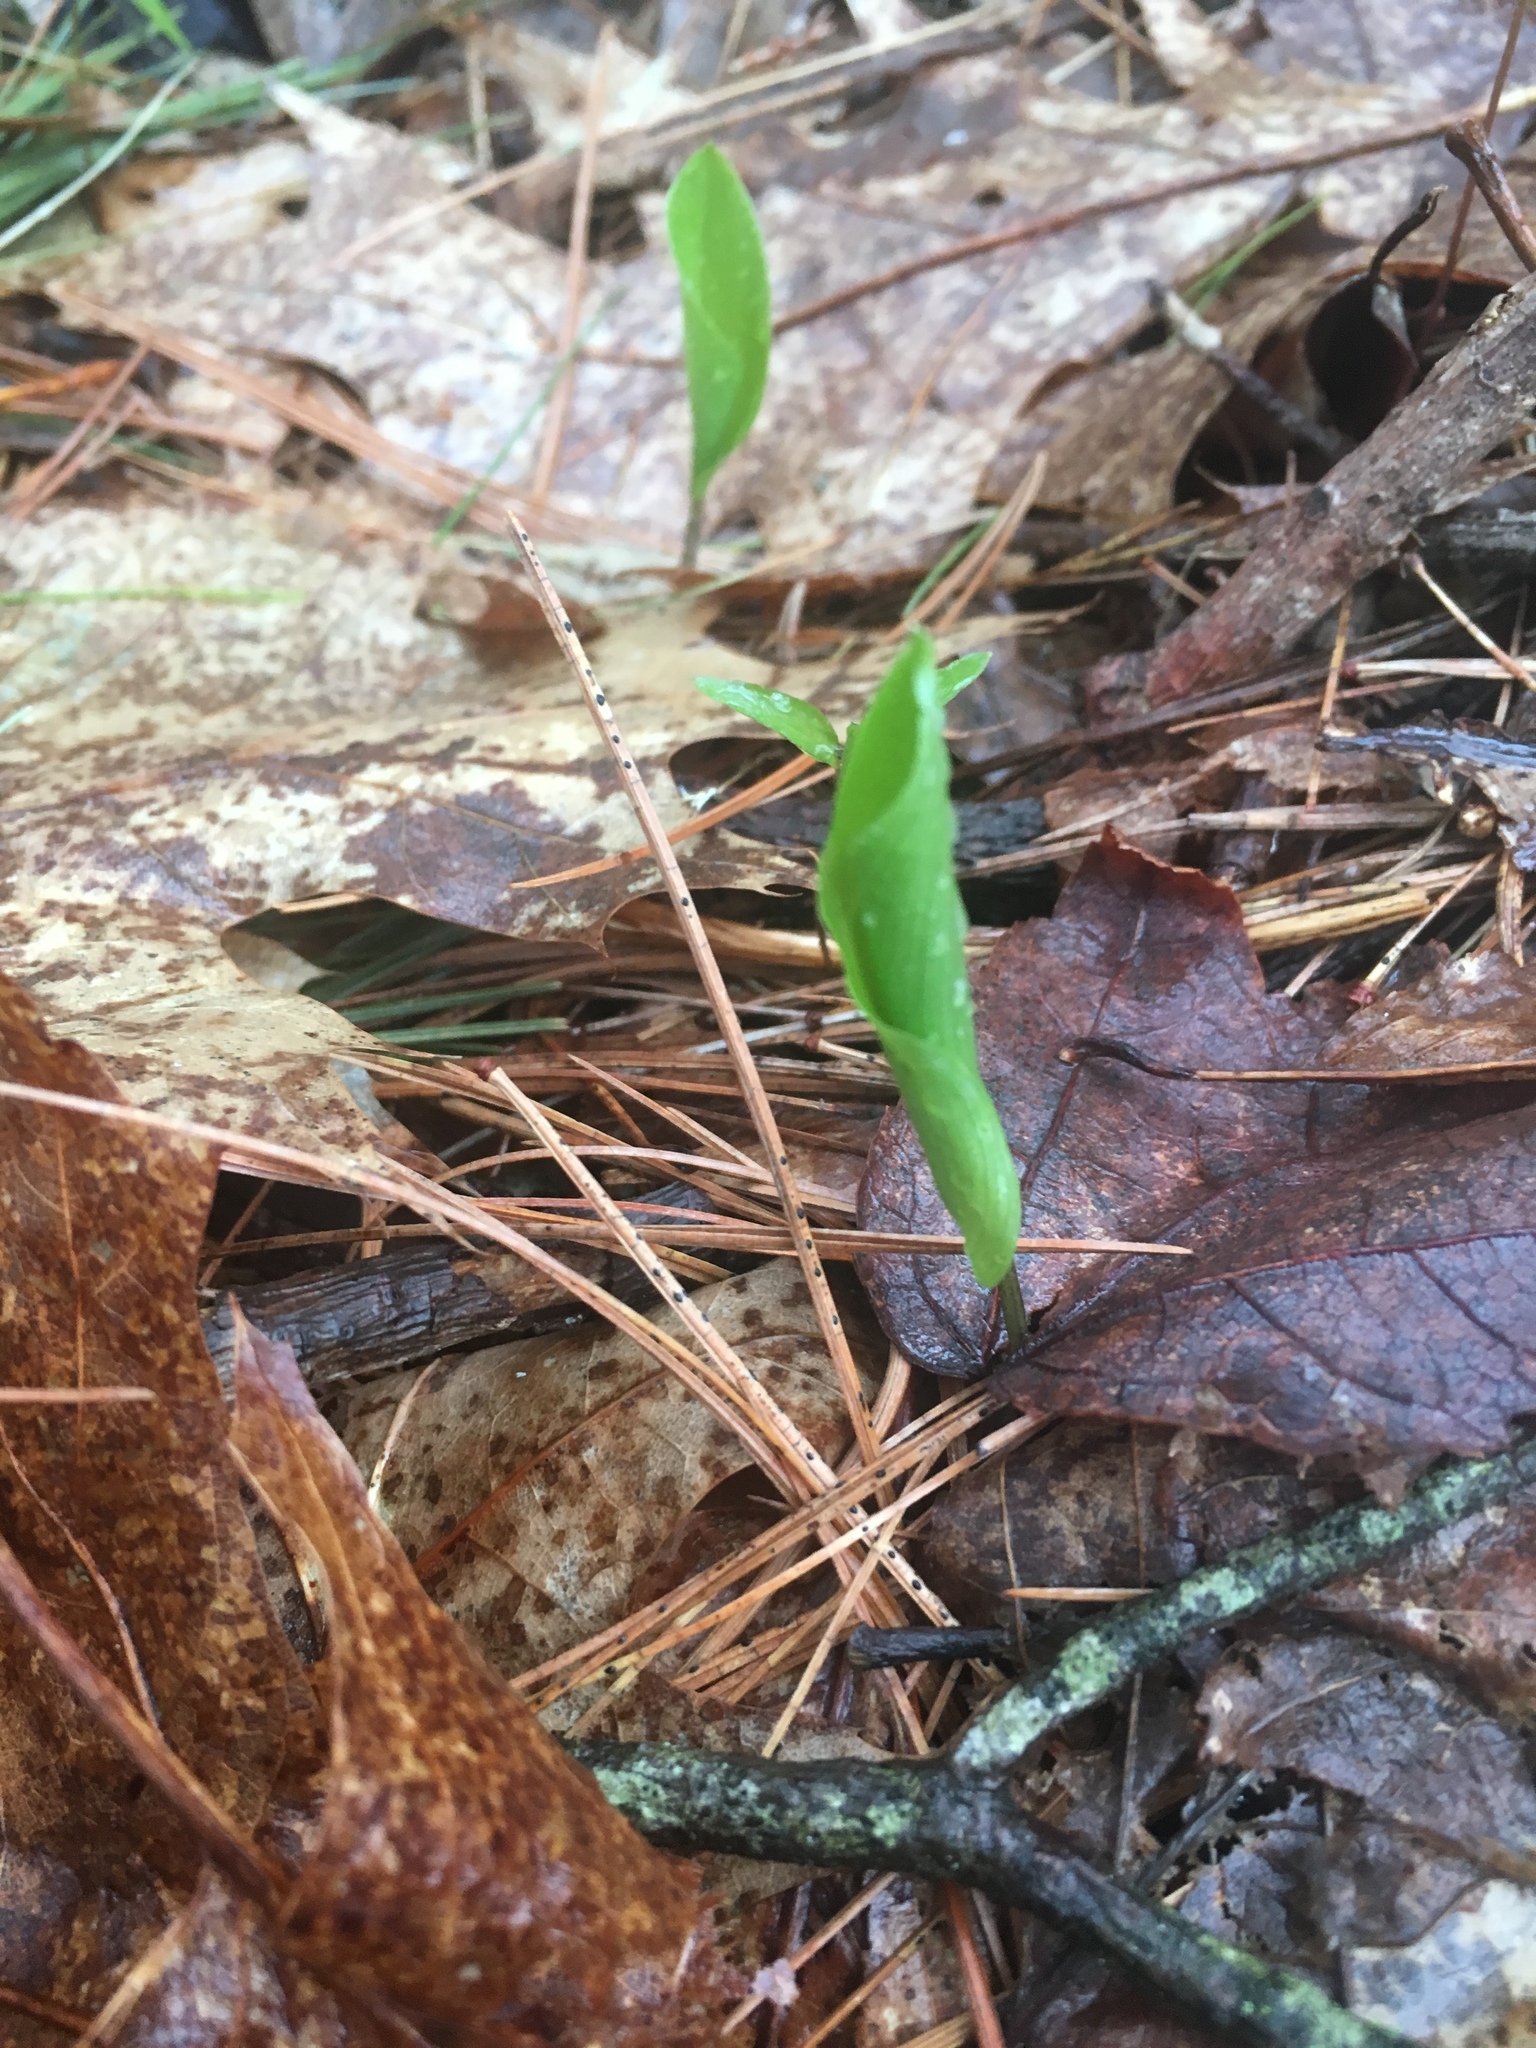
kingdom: Plantae
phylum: Tracheophyta
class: Liliopsida
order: Asparagales
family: Asparagaceae
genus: Maianthemum
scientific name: Maianthemum canadense
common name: False lily-of-the-valley
